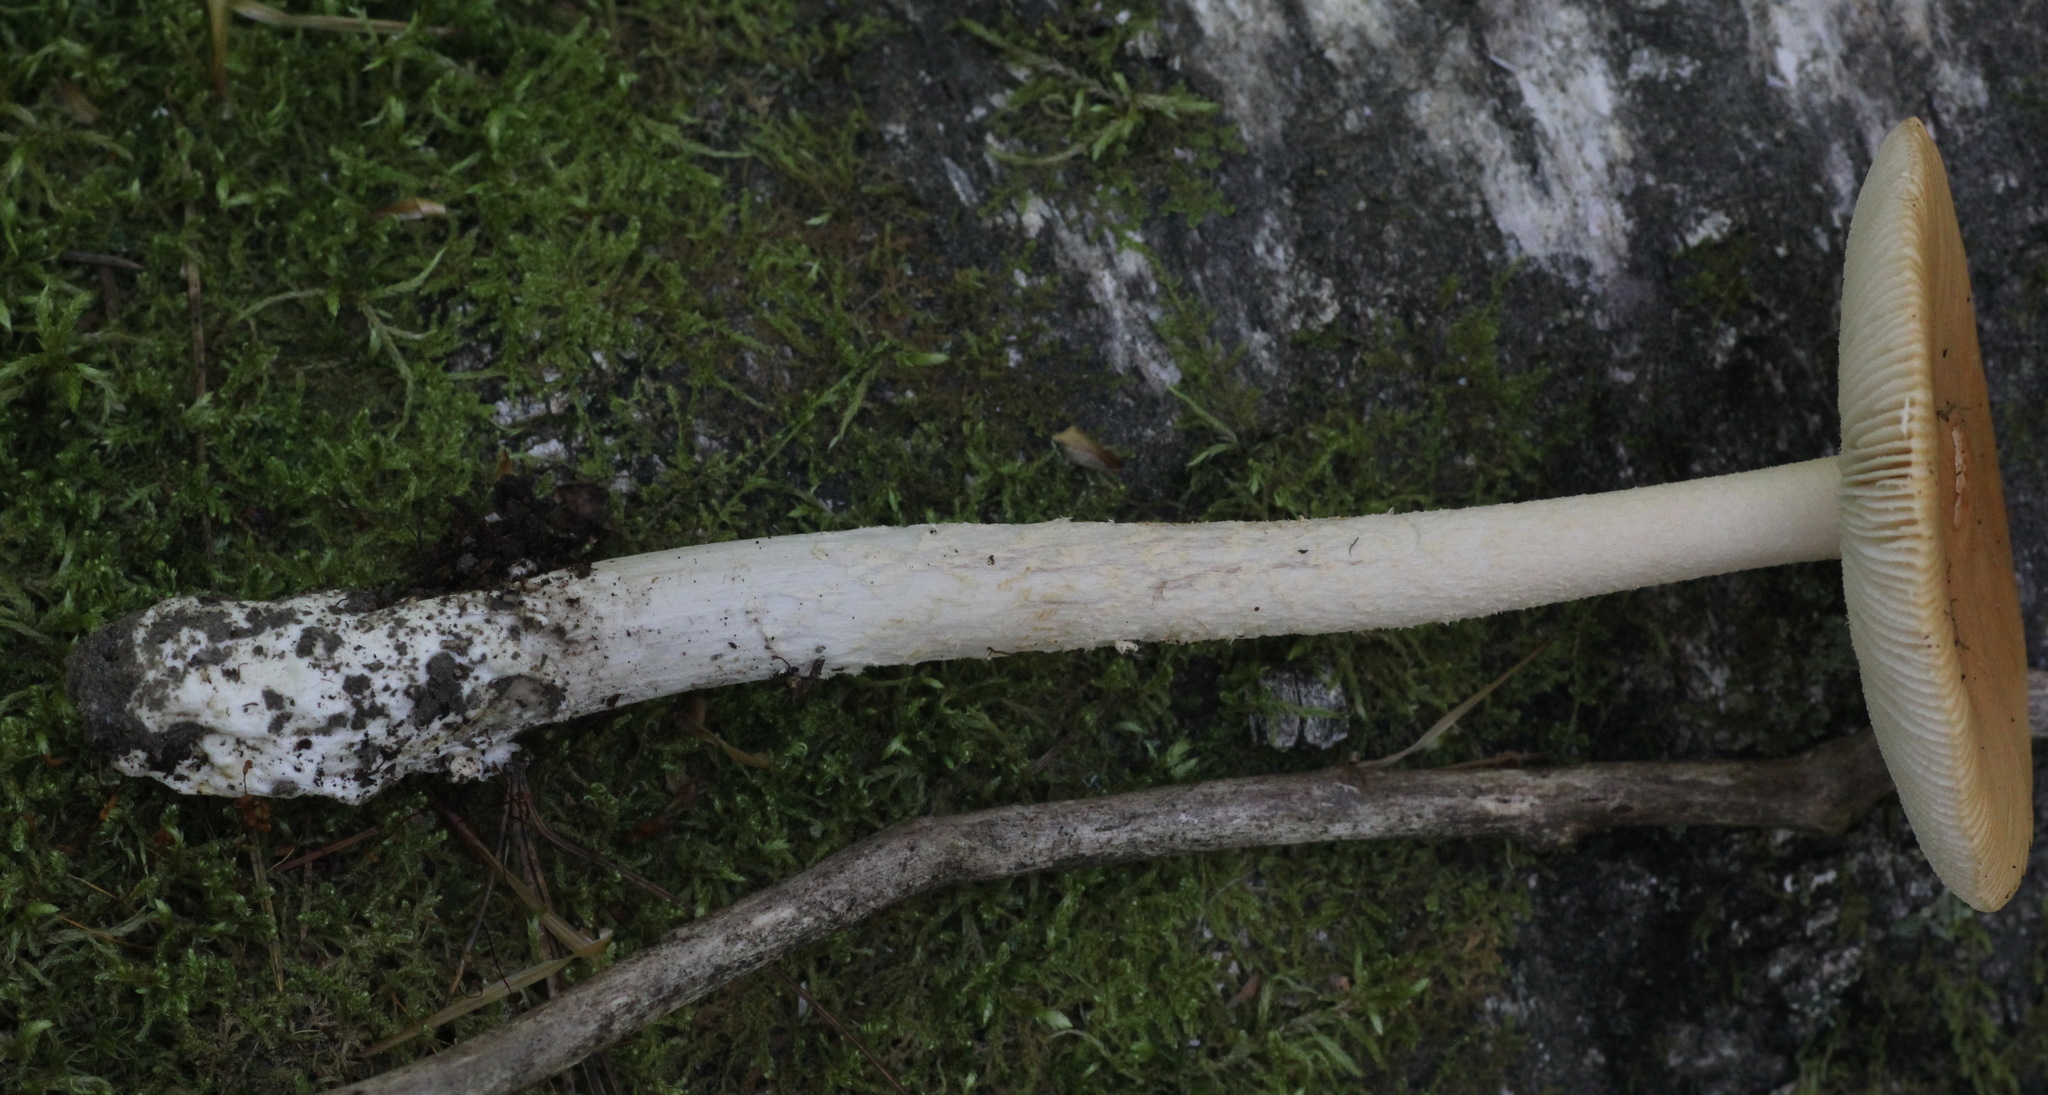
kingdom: Fungi
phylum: Basidiomycota
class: Agaricomycetes
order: Agaricales
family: Amanitaceae
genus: Amanita
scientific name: Amanita contui
